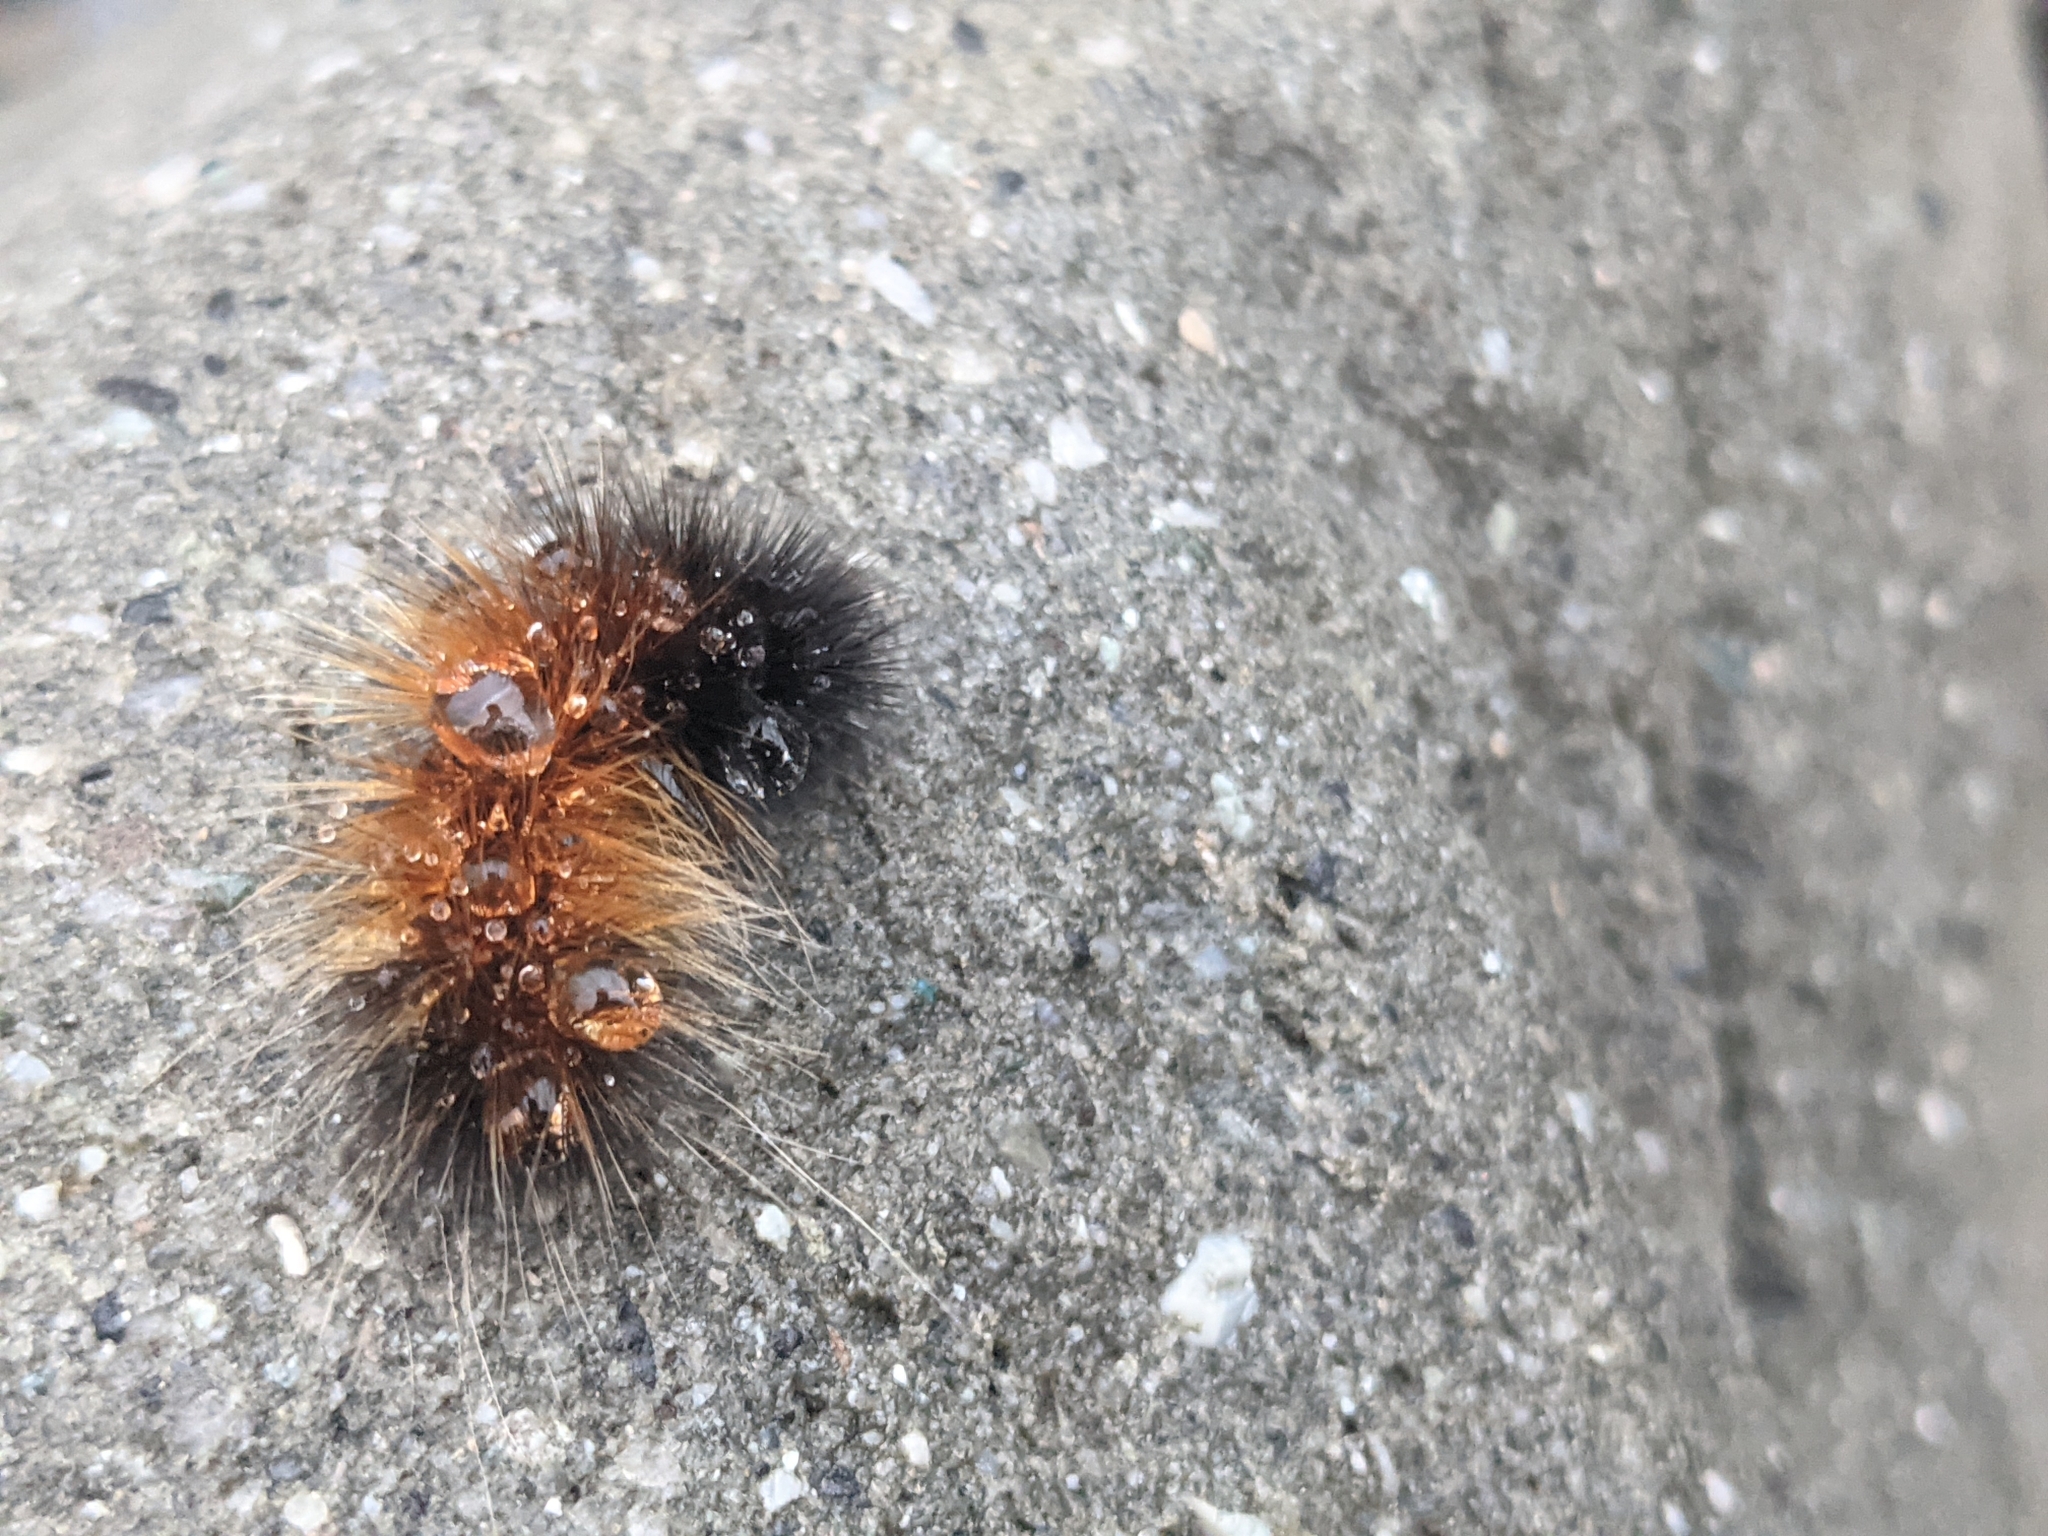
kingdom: Animalia
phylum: Arthropoda
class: Insecta
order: Lepidoptera
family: Erebidae
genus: Pyrrharctia
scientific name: Pyrrharctia isabella
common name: Isabella tiger moth
